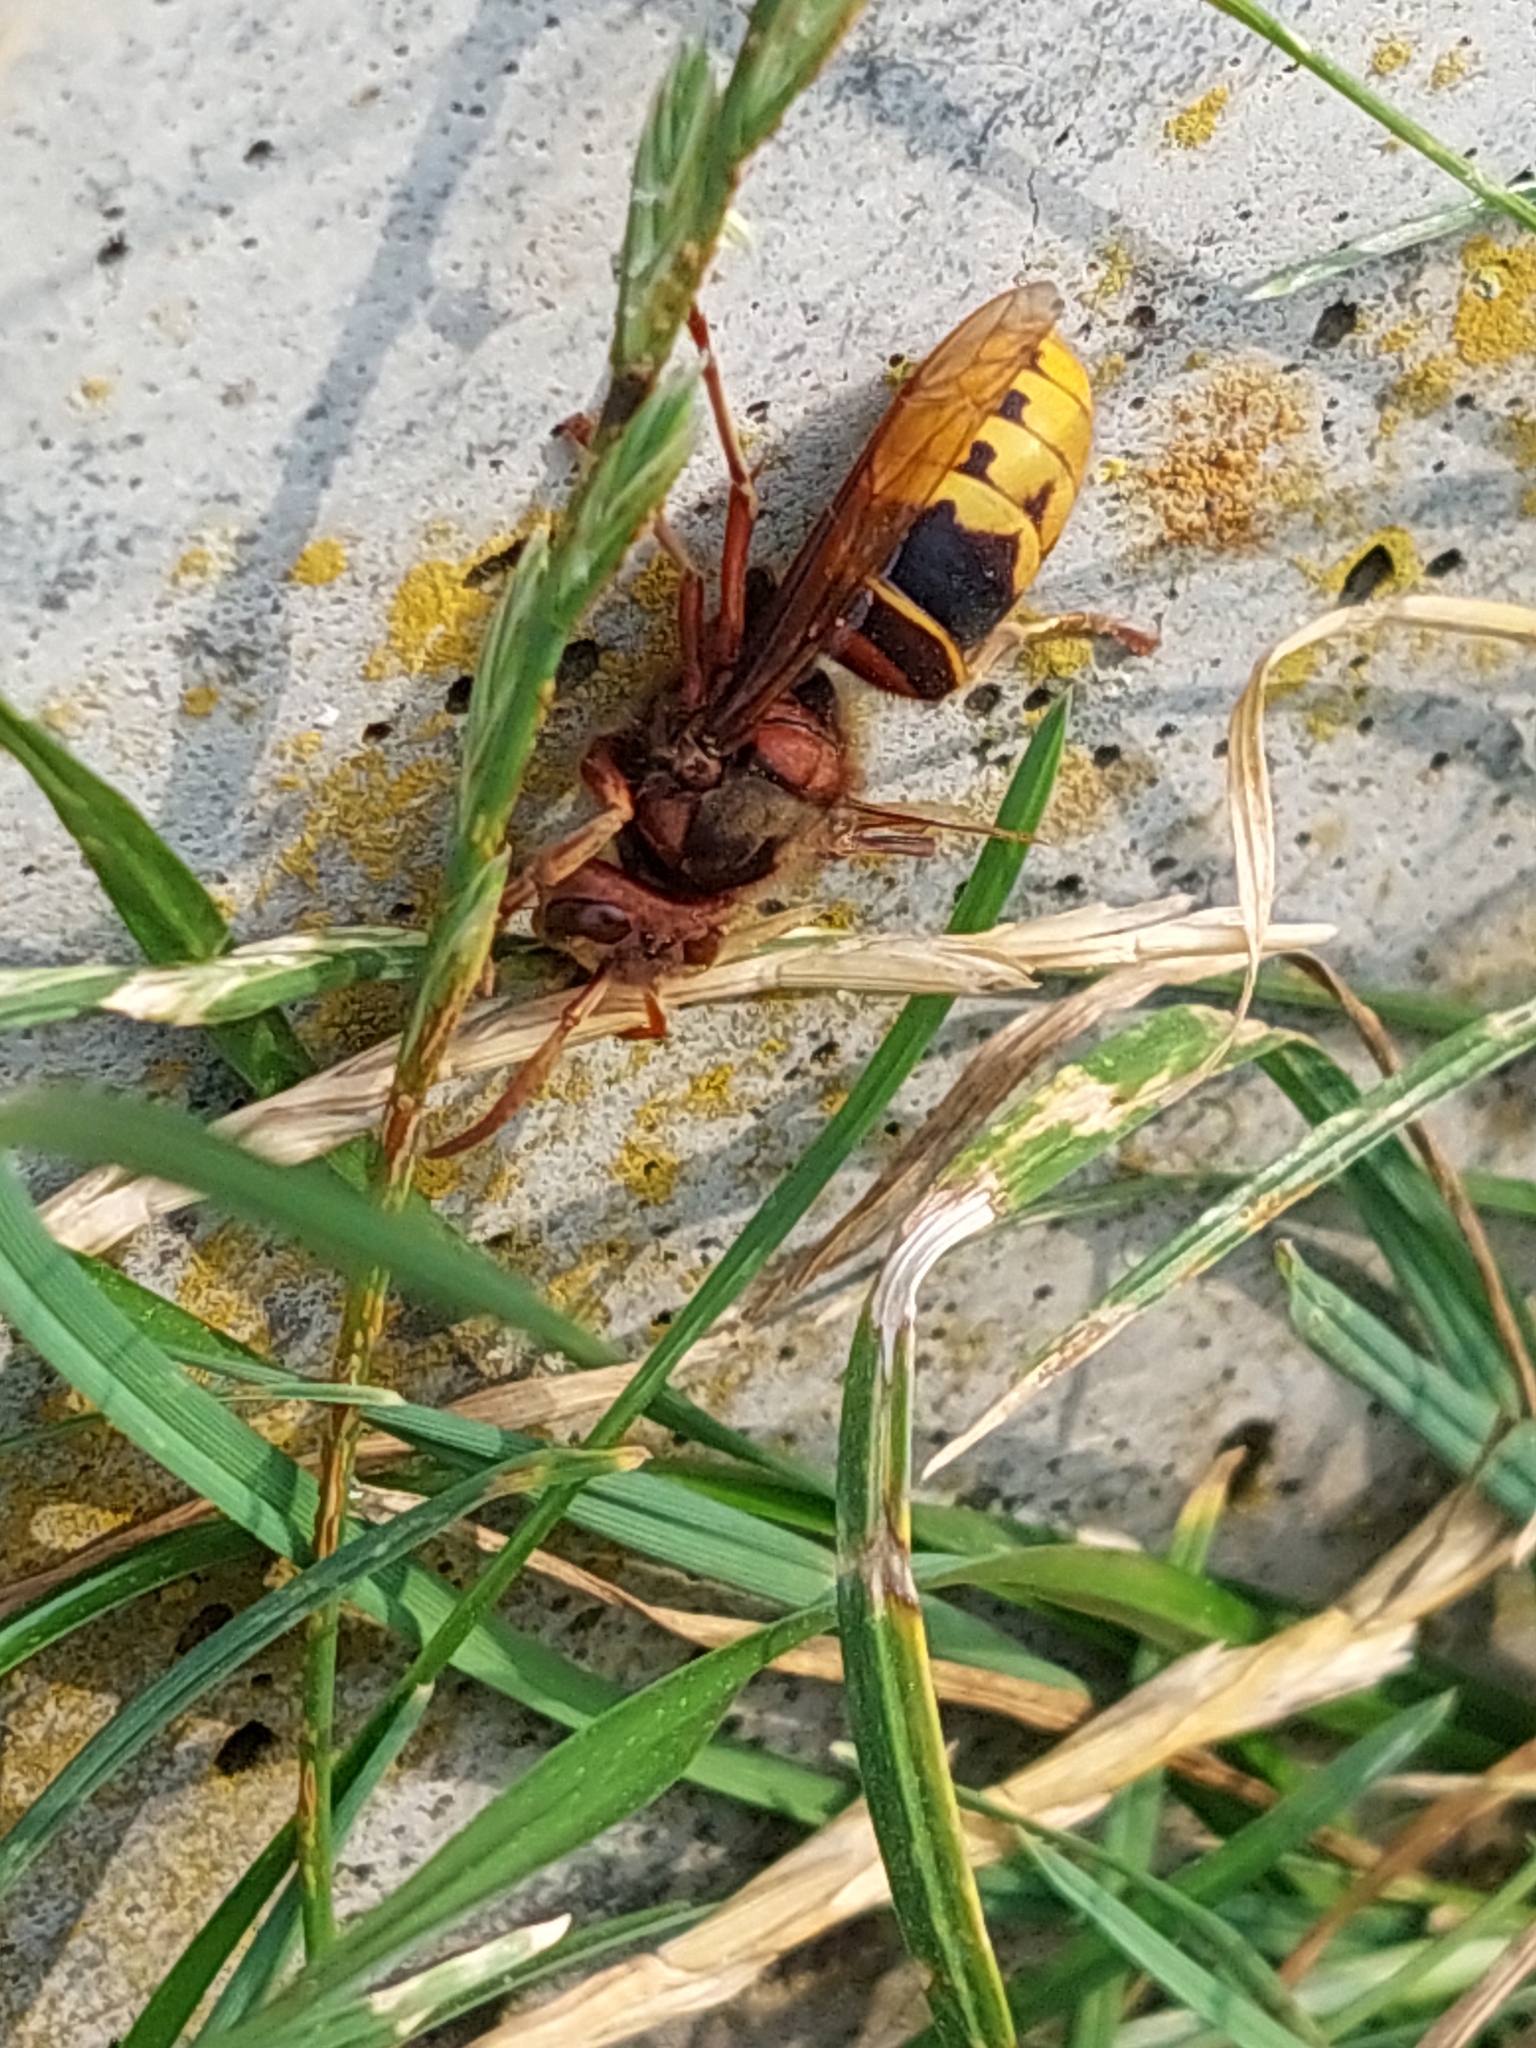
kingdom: Animalia
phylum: Arthropoda
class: Insecta
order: Hymenoptera
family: Vespidae
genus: Vespa
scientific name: Vespa crabro
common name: Hornet
